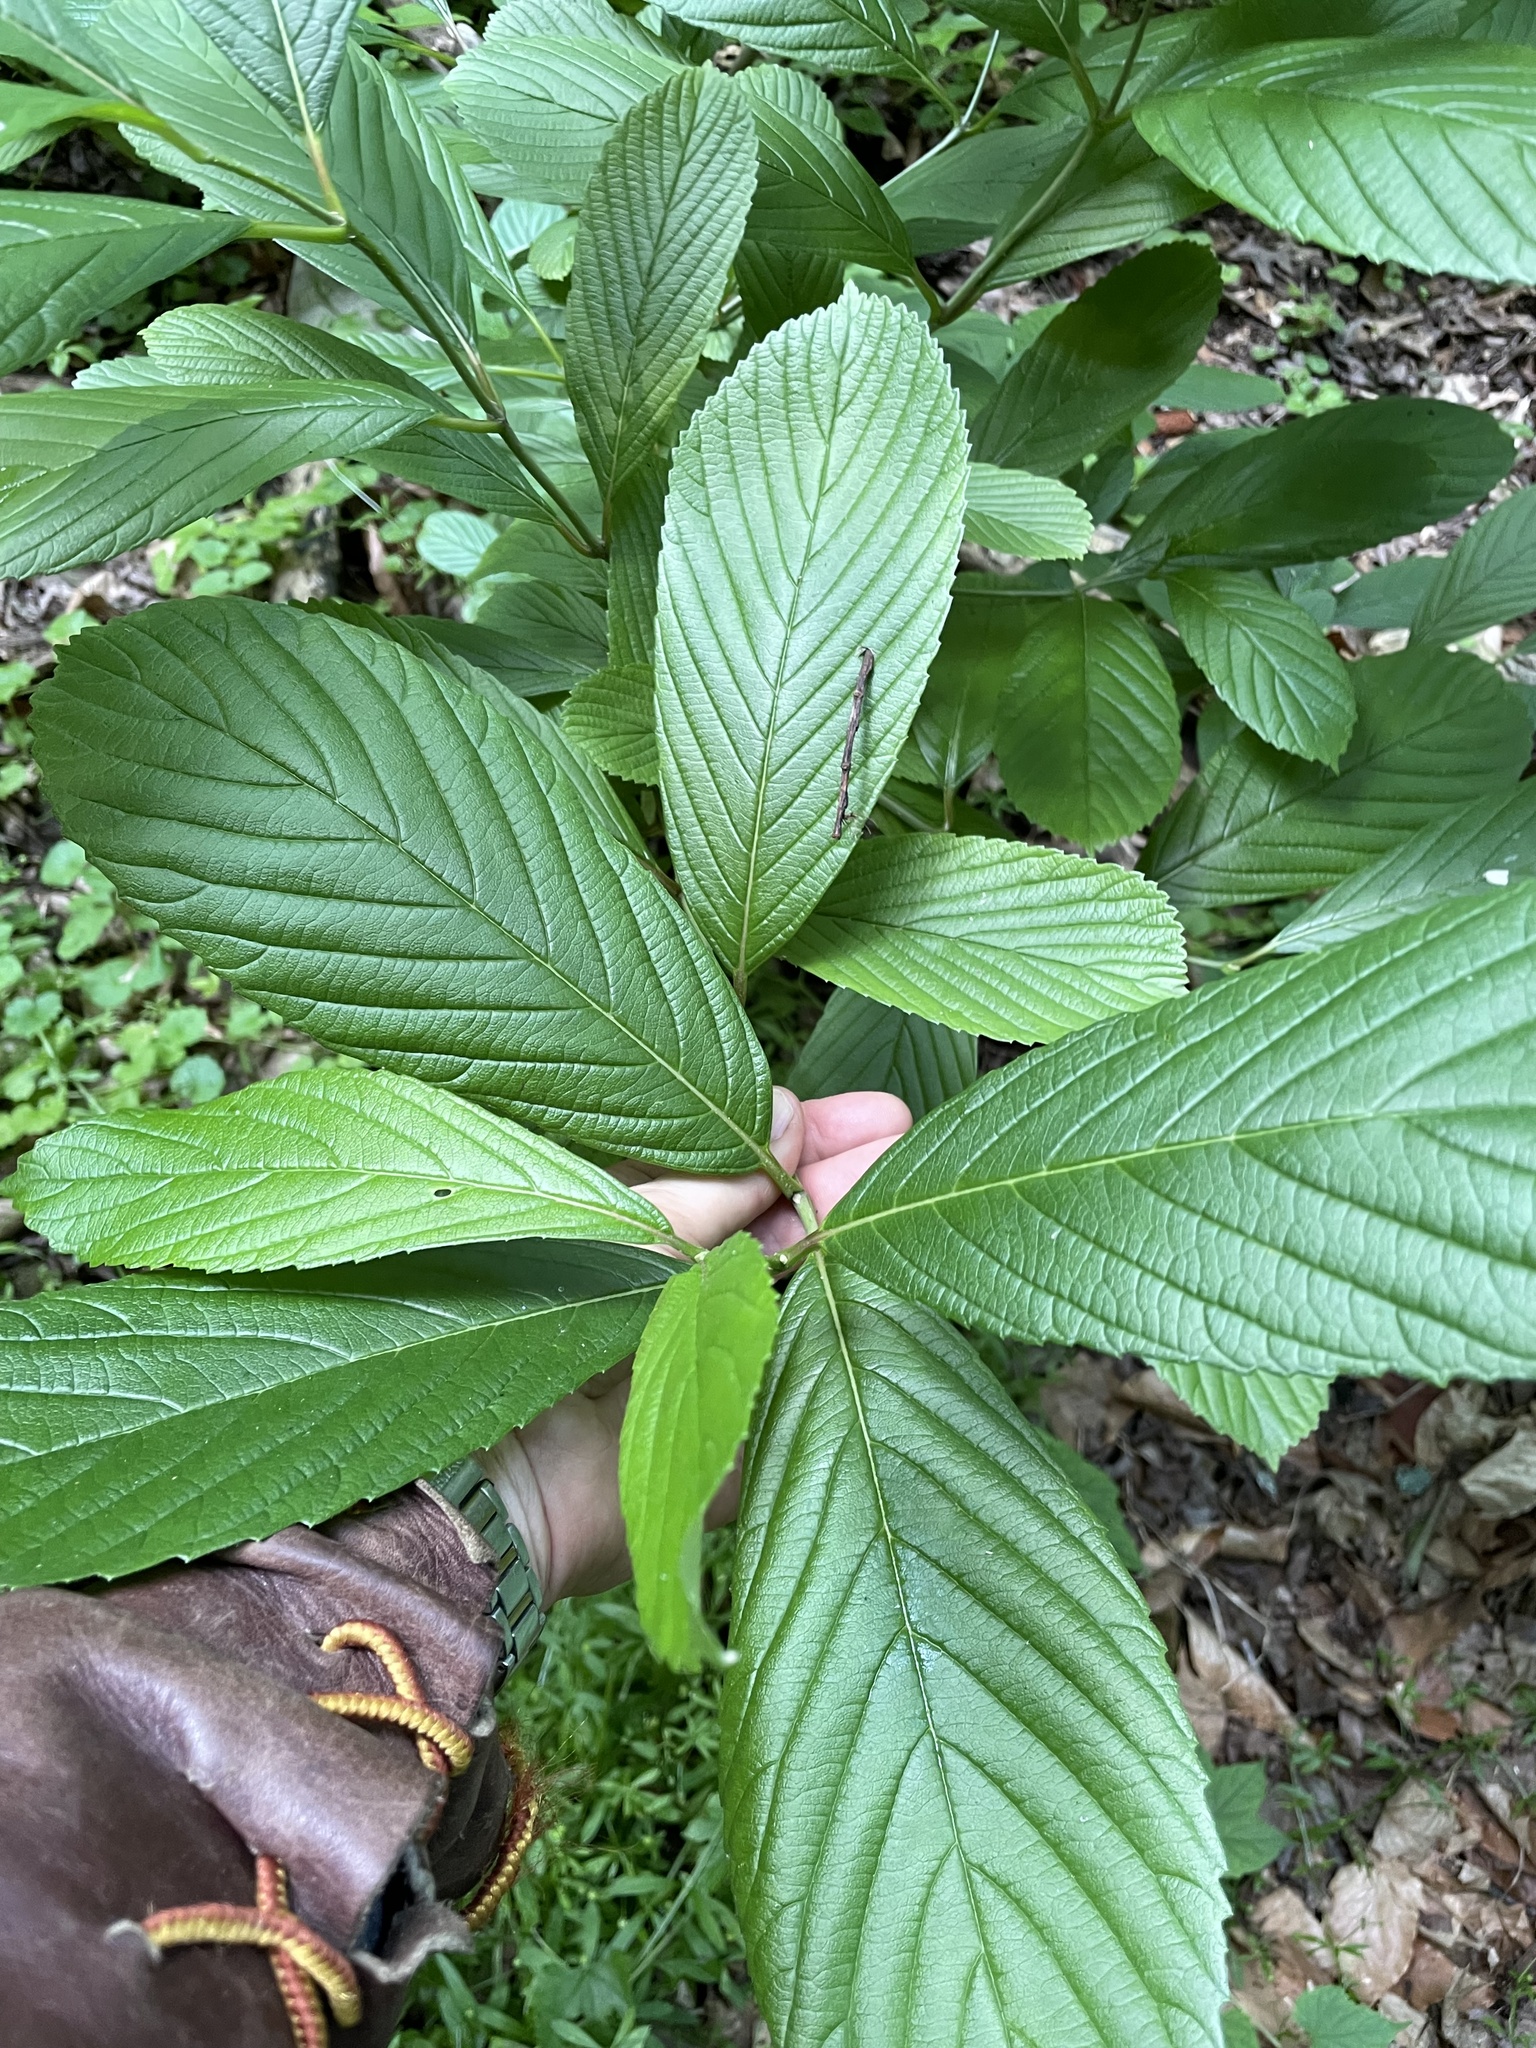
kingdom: Plantae
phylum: Tracheophyta
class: Magnoliopsida
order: Dipsacales
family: Viburnaceae
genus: Viburnum
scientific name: Viburnum sieboldii
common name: Siebold's arrowwood
